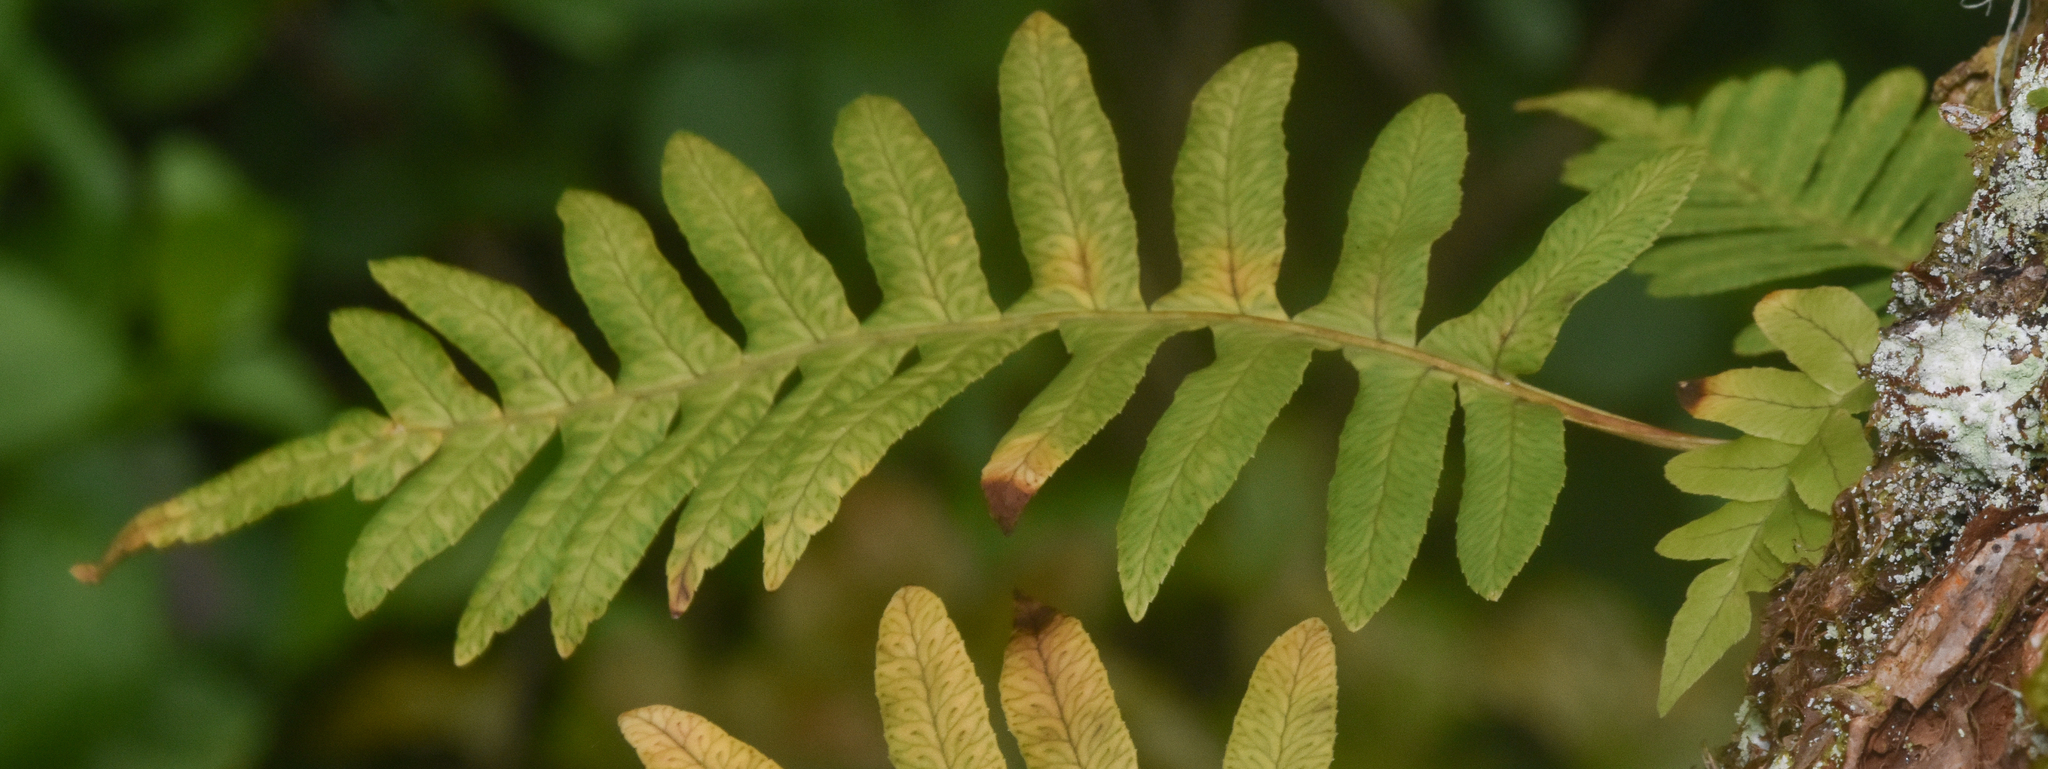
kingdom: Plantae
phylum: Tracheophyta
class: Polypodiopsida
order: Polypodiales
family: Polypodiaceae
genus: Polypodium
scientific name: Polypodium glycyrrhiza
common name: Licorice fern
